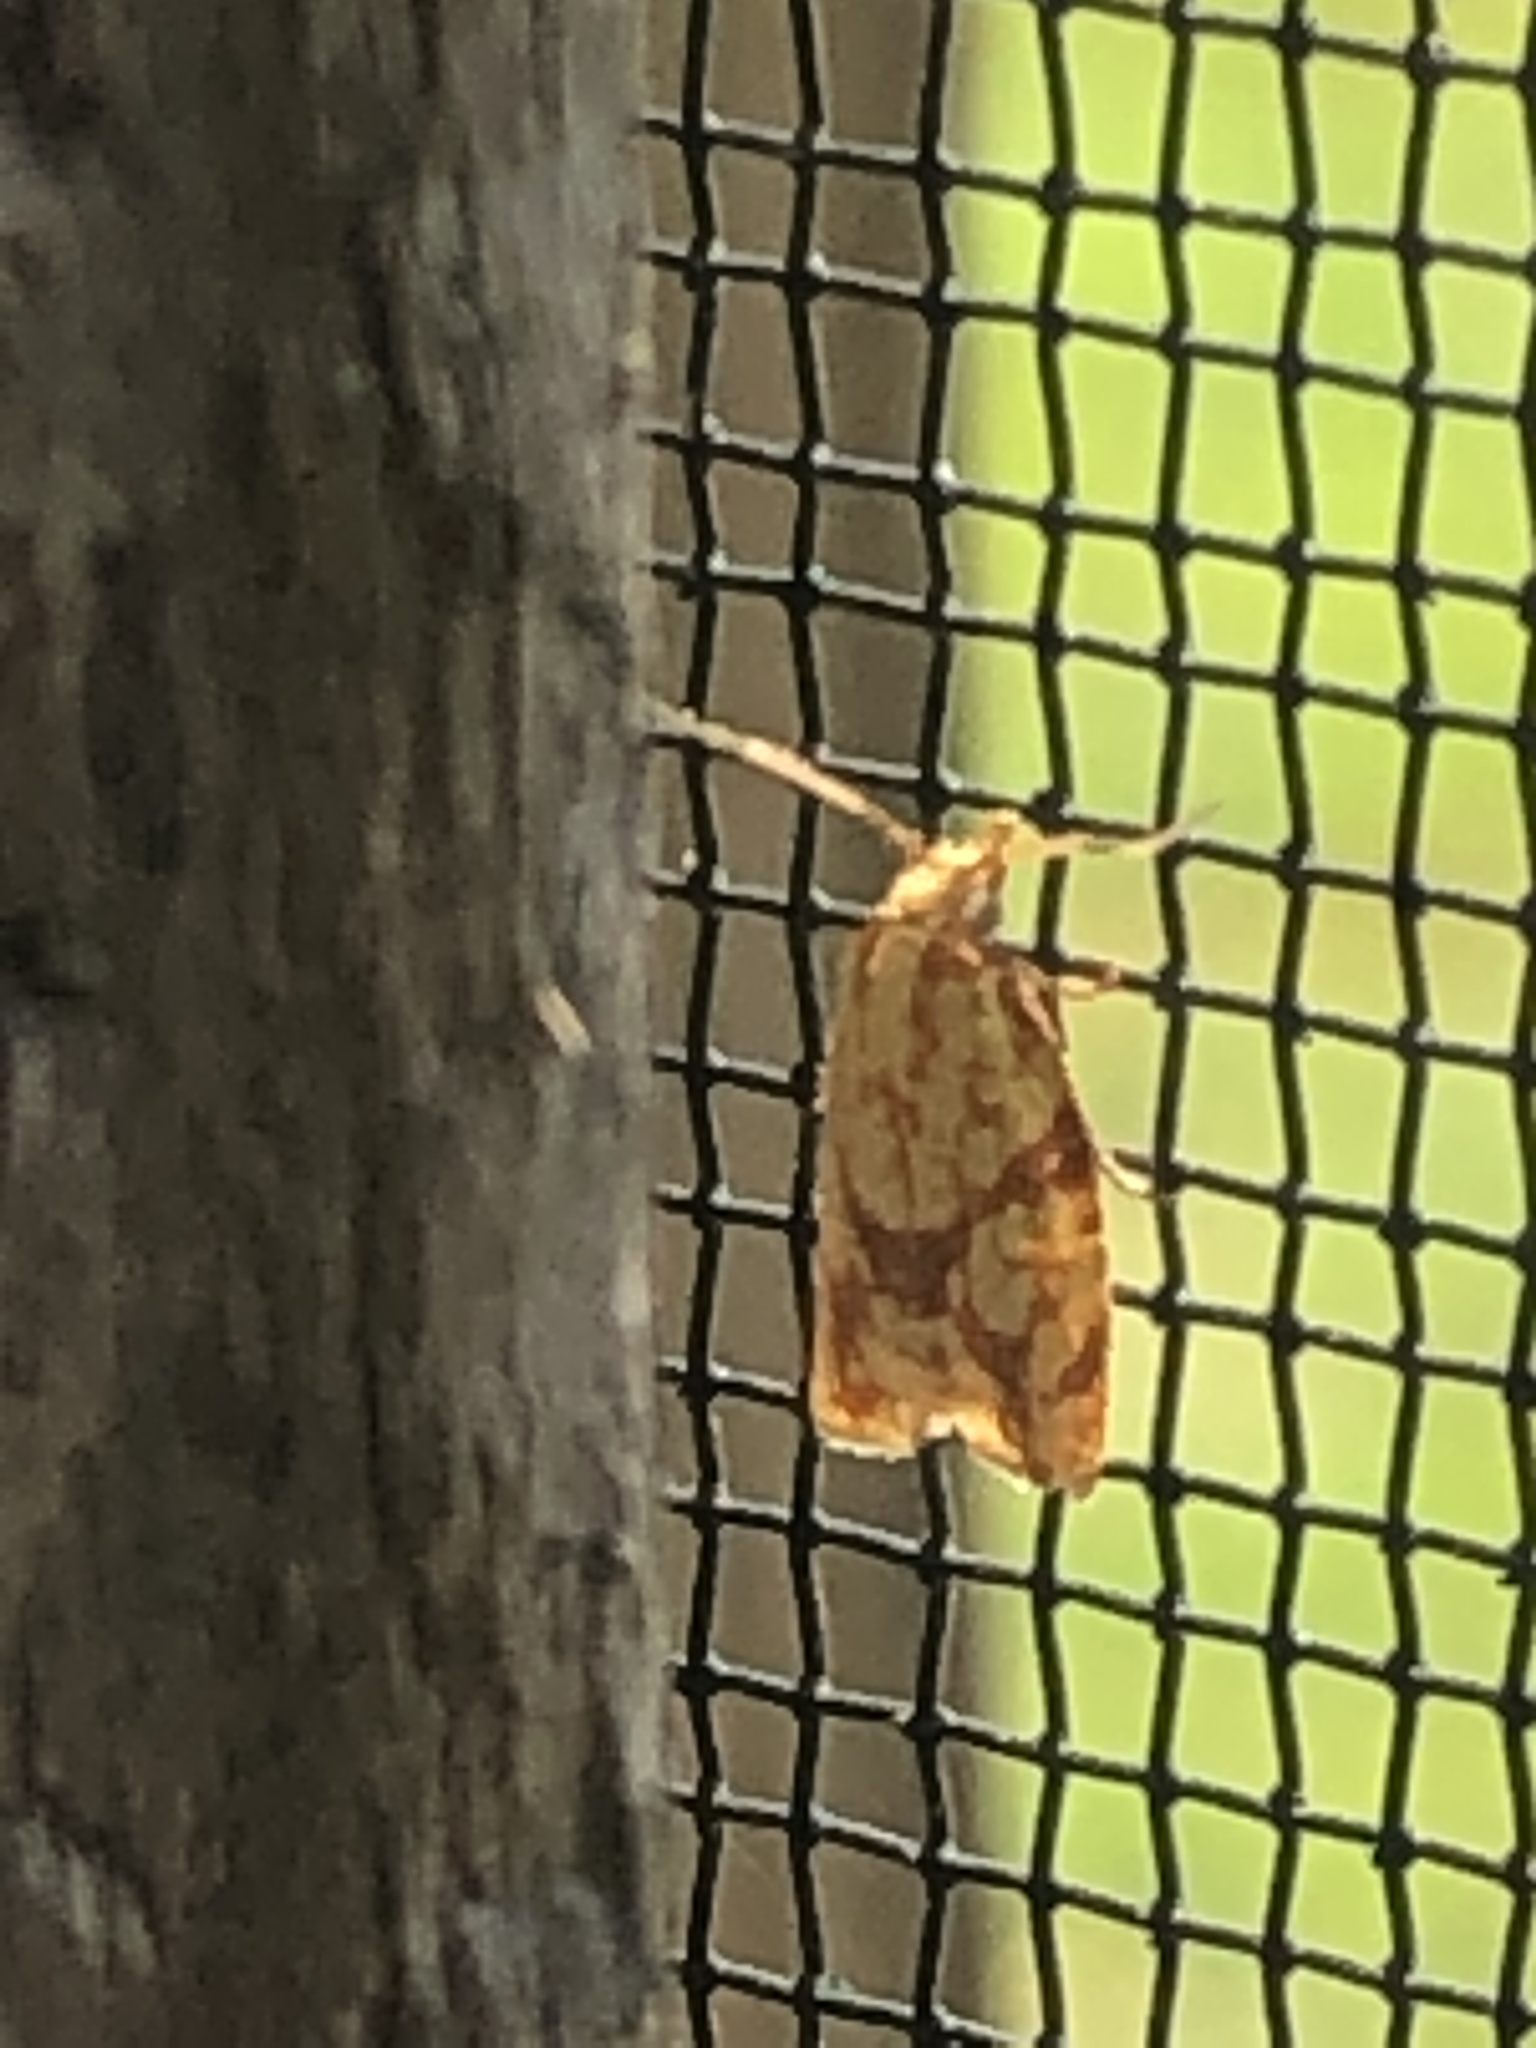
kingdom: Animalia
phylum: Arthropoda
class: Insecta
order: Lepidoptera
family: Tortricidae
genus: Sparganothis
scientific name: Sparganothis sulfureana
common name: Sparganothis fruitworm moth
